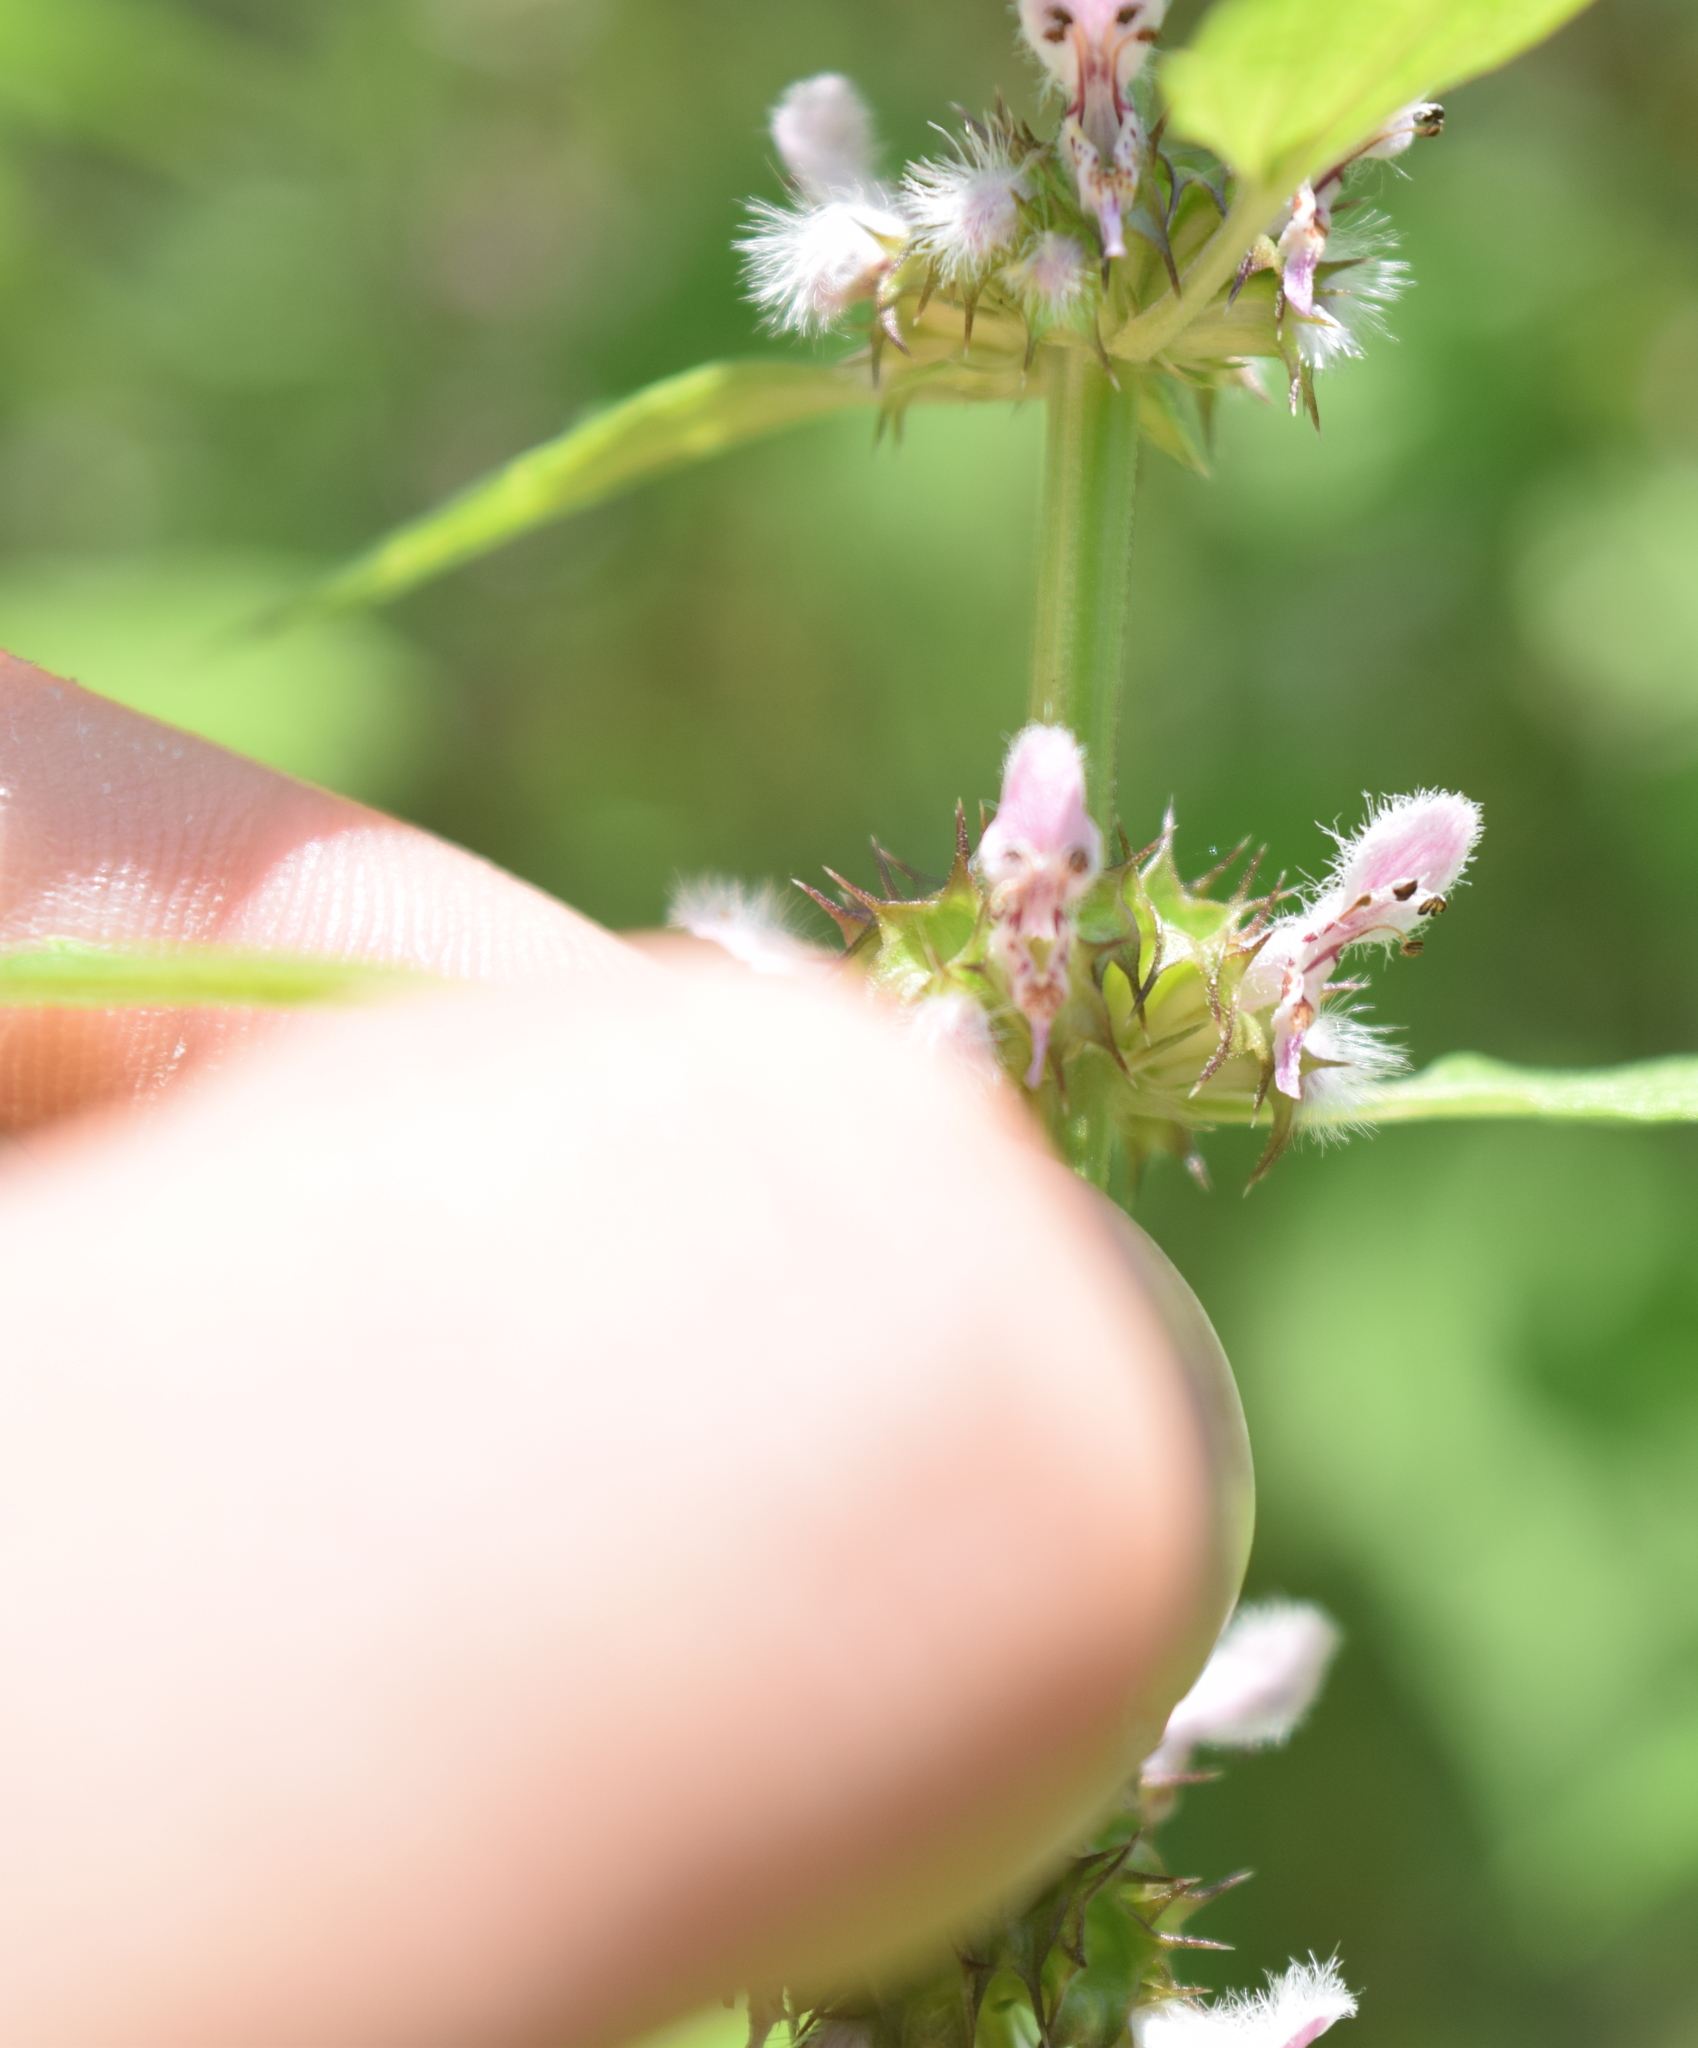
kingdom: Plantae
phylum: Tracheophyta
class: Magnoliopsida
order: Lamiales
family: Lamiaceae
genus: Leonurus
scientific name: Leonurus cardiaca
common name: Motherwort
